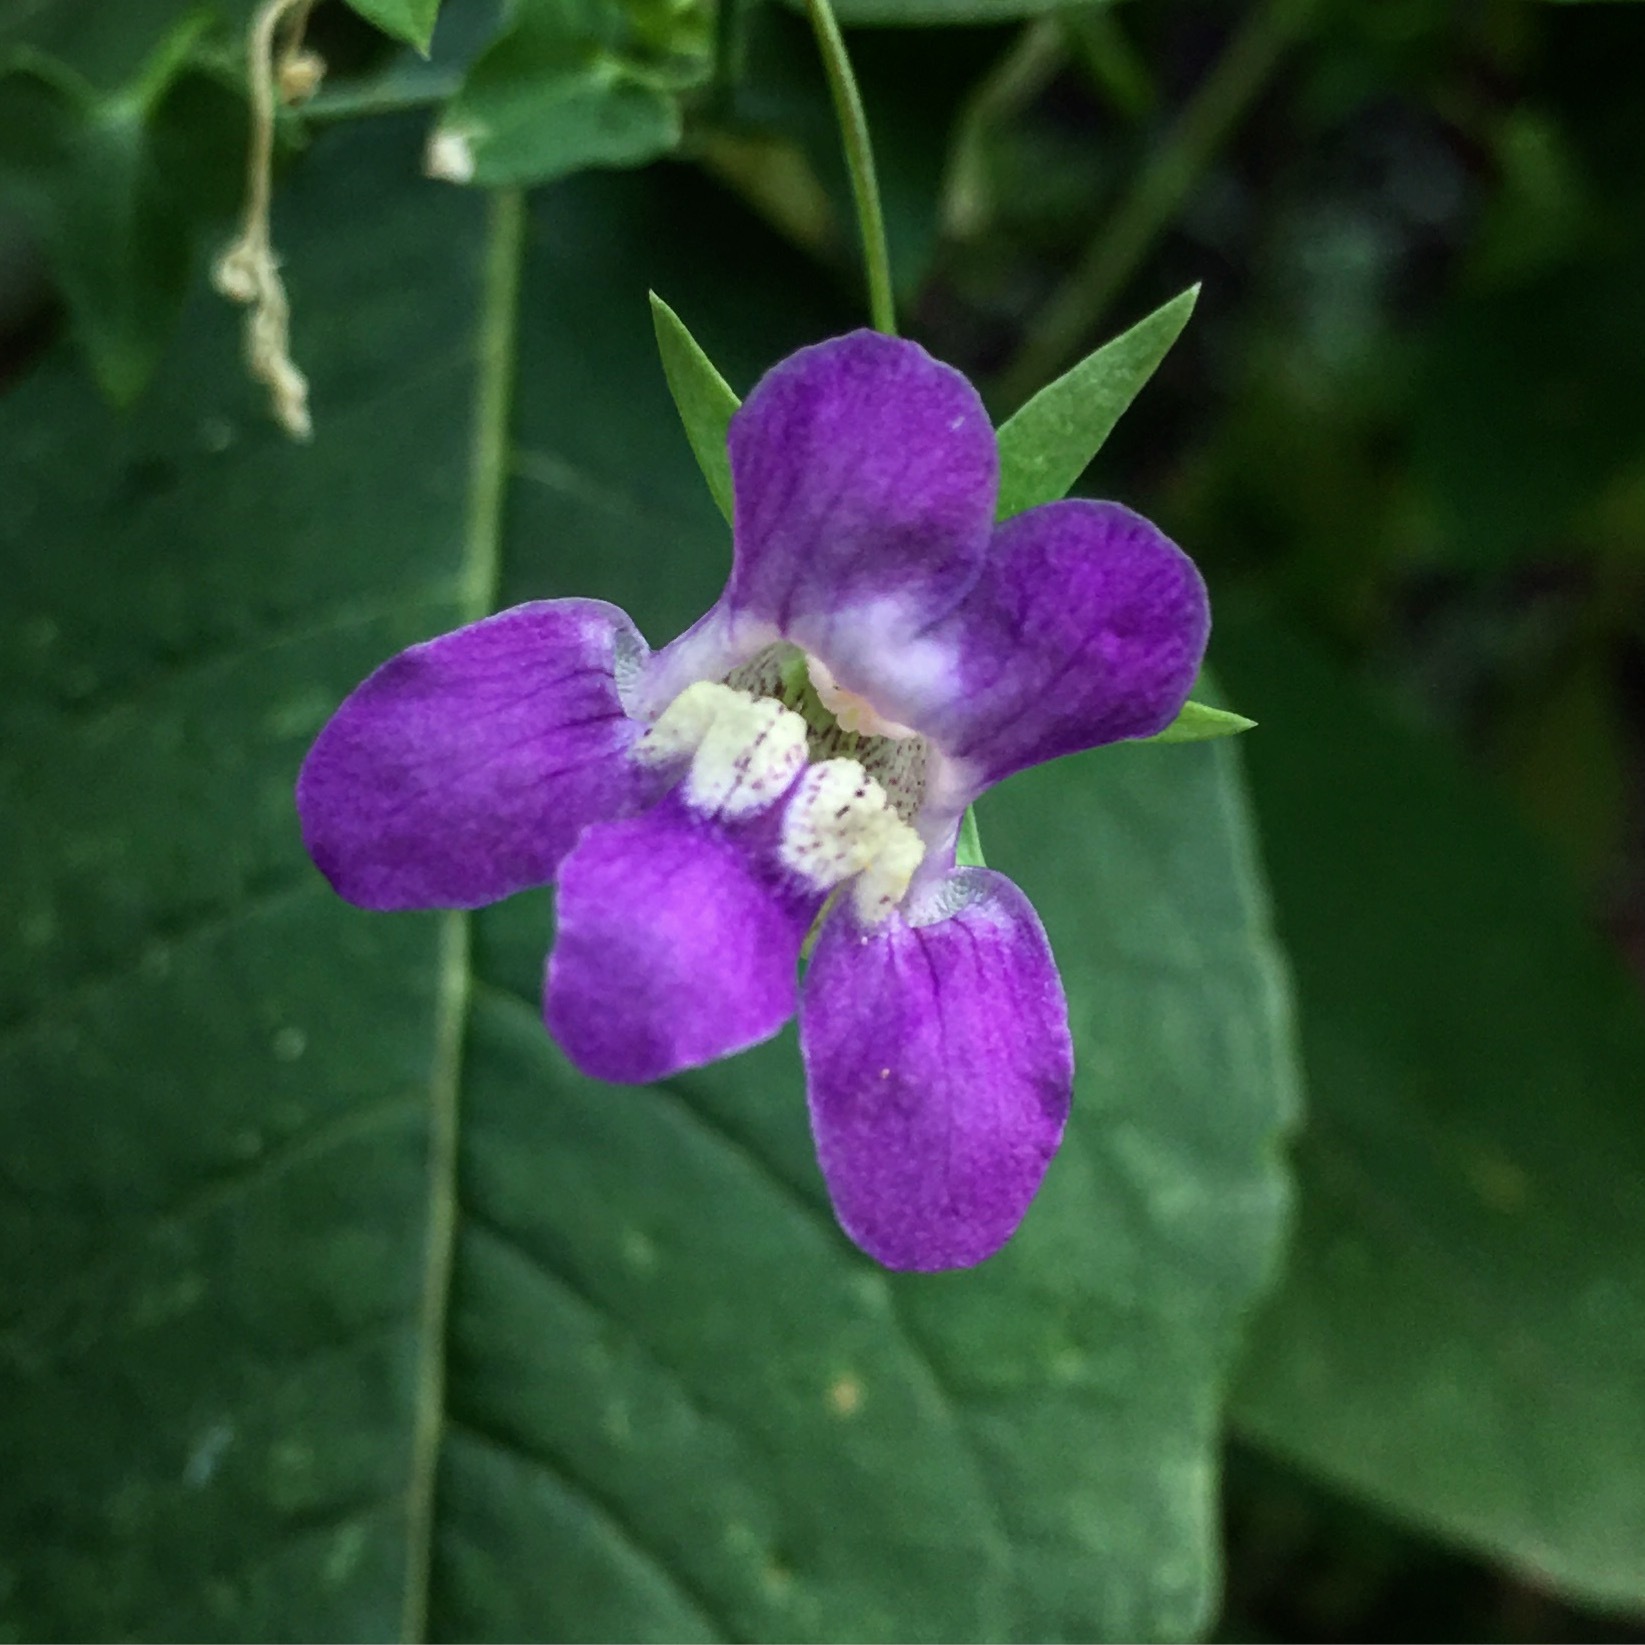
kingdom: Plantae
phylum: Tracheophyta
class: Magnoliopsida
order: Lamiales
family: Plantaginaceae
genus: Maurandella
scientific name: Maurandella antirrhiniflora
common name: Violet twining-snapdragon
